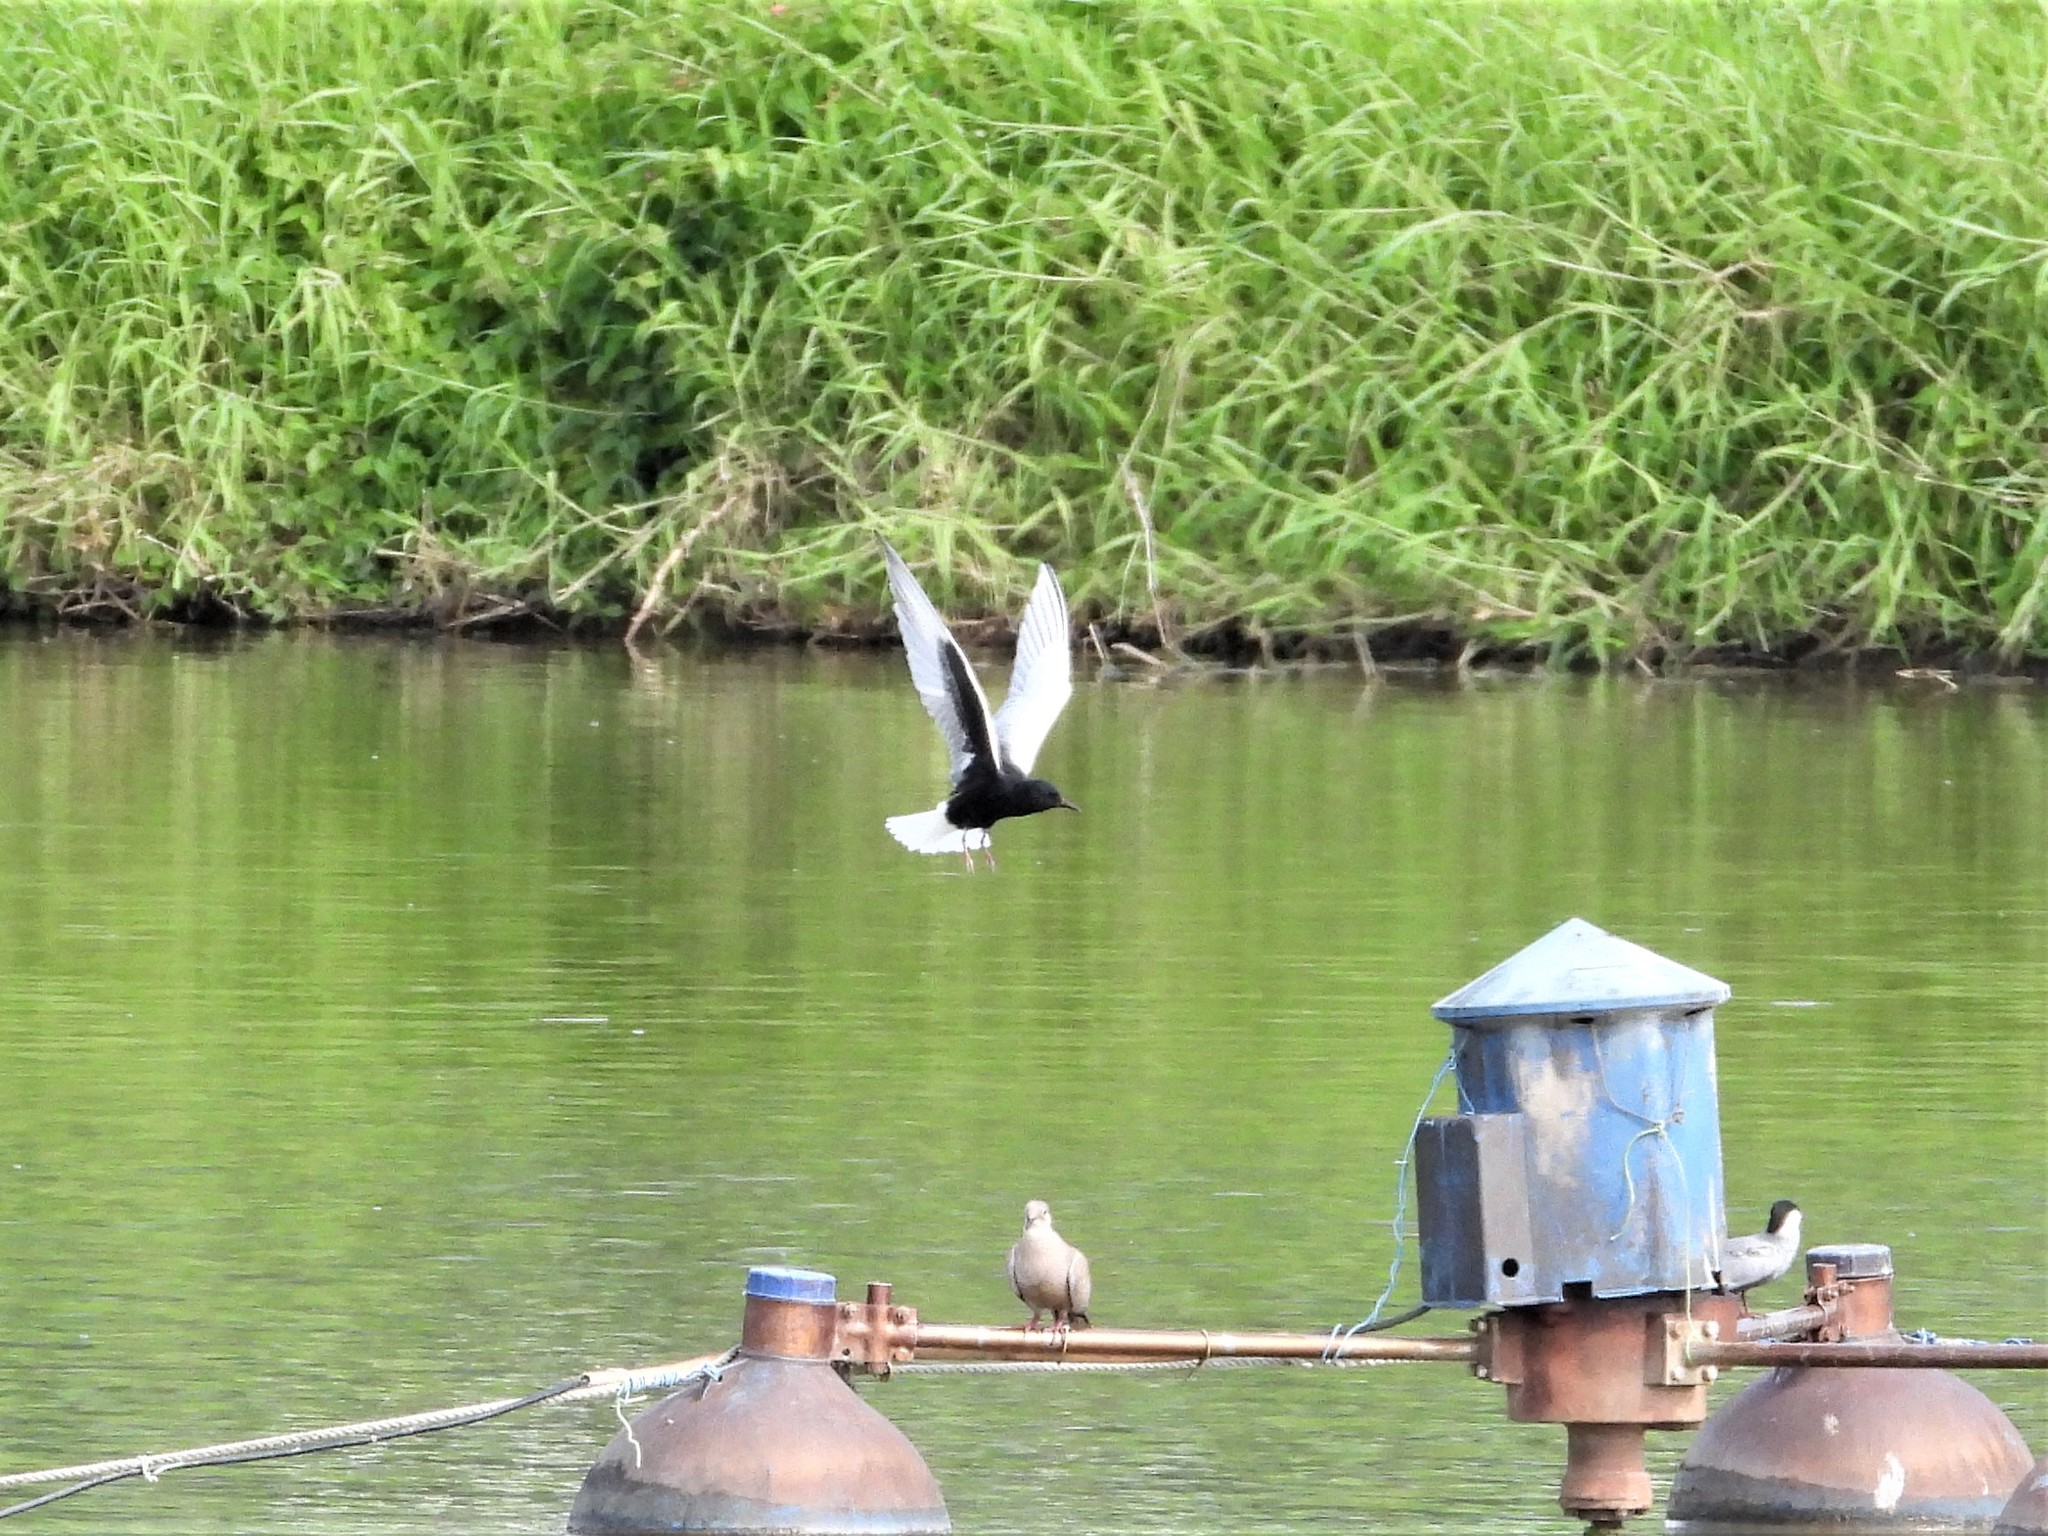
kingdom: Animalia
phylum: Chordata
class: Aves
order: Charadriiformes
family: Laridae
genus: Chlidonias
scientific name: Chlidonias leucopterus
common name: White-winged tern
